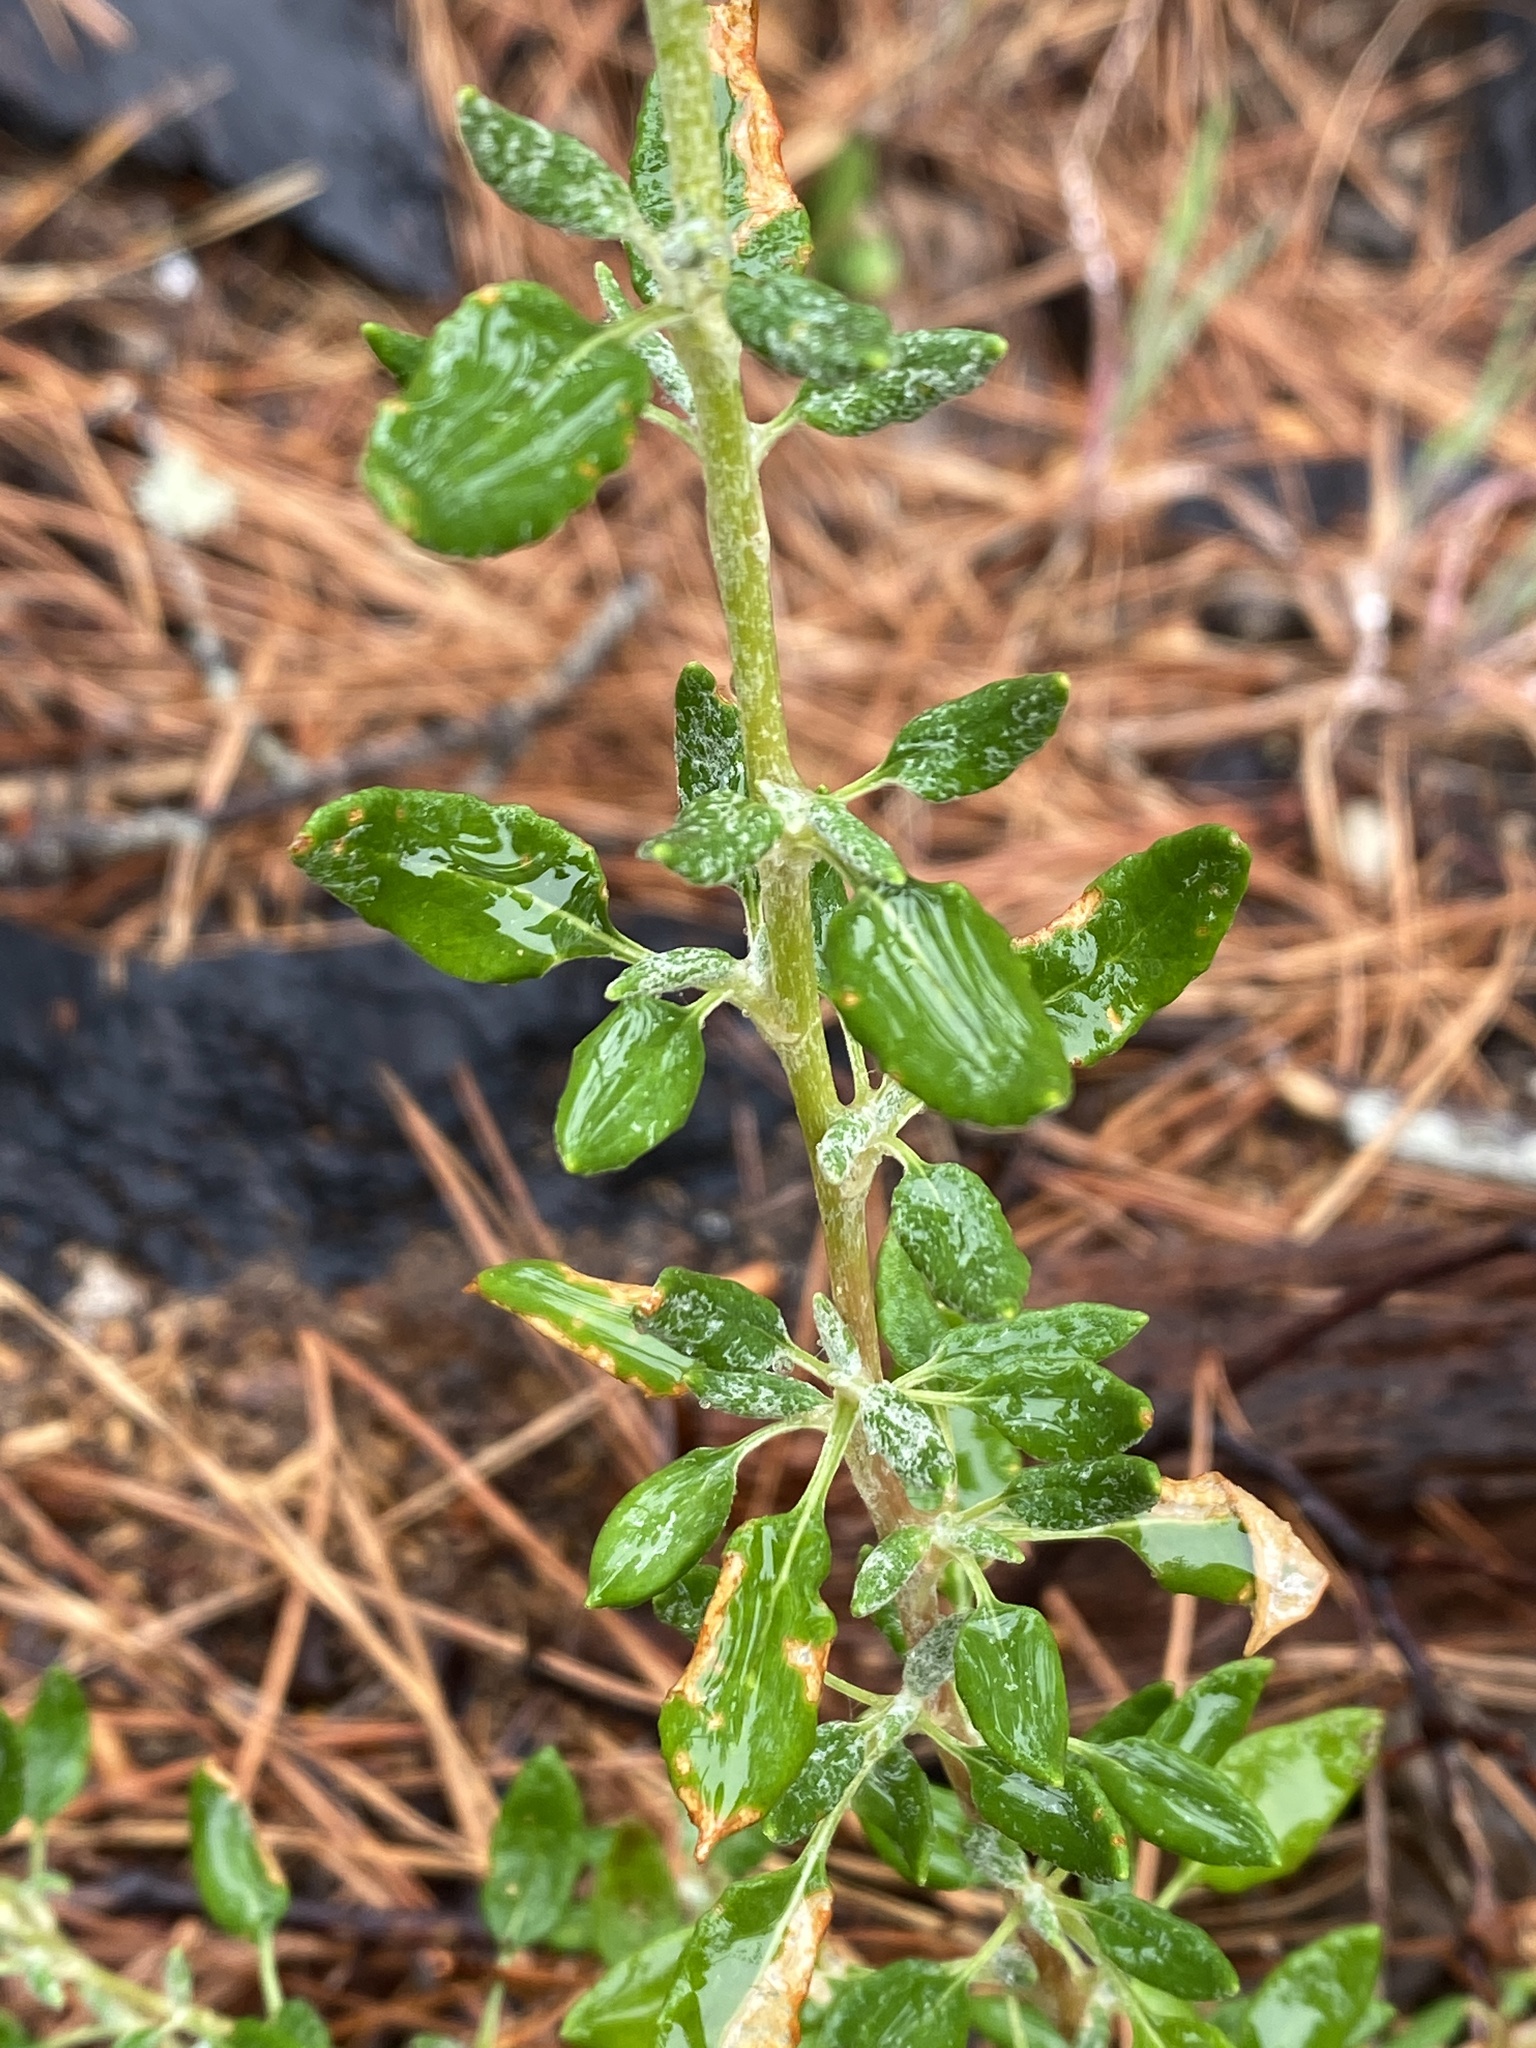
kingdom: Plantae
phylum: Tracheophyta
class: Magnoliopsida
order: Caryophyllales
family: Polygonaceae
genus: Eriogonum
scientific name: Eriogonum parvifolium
